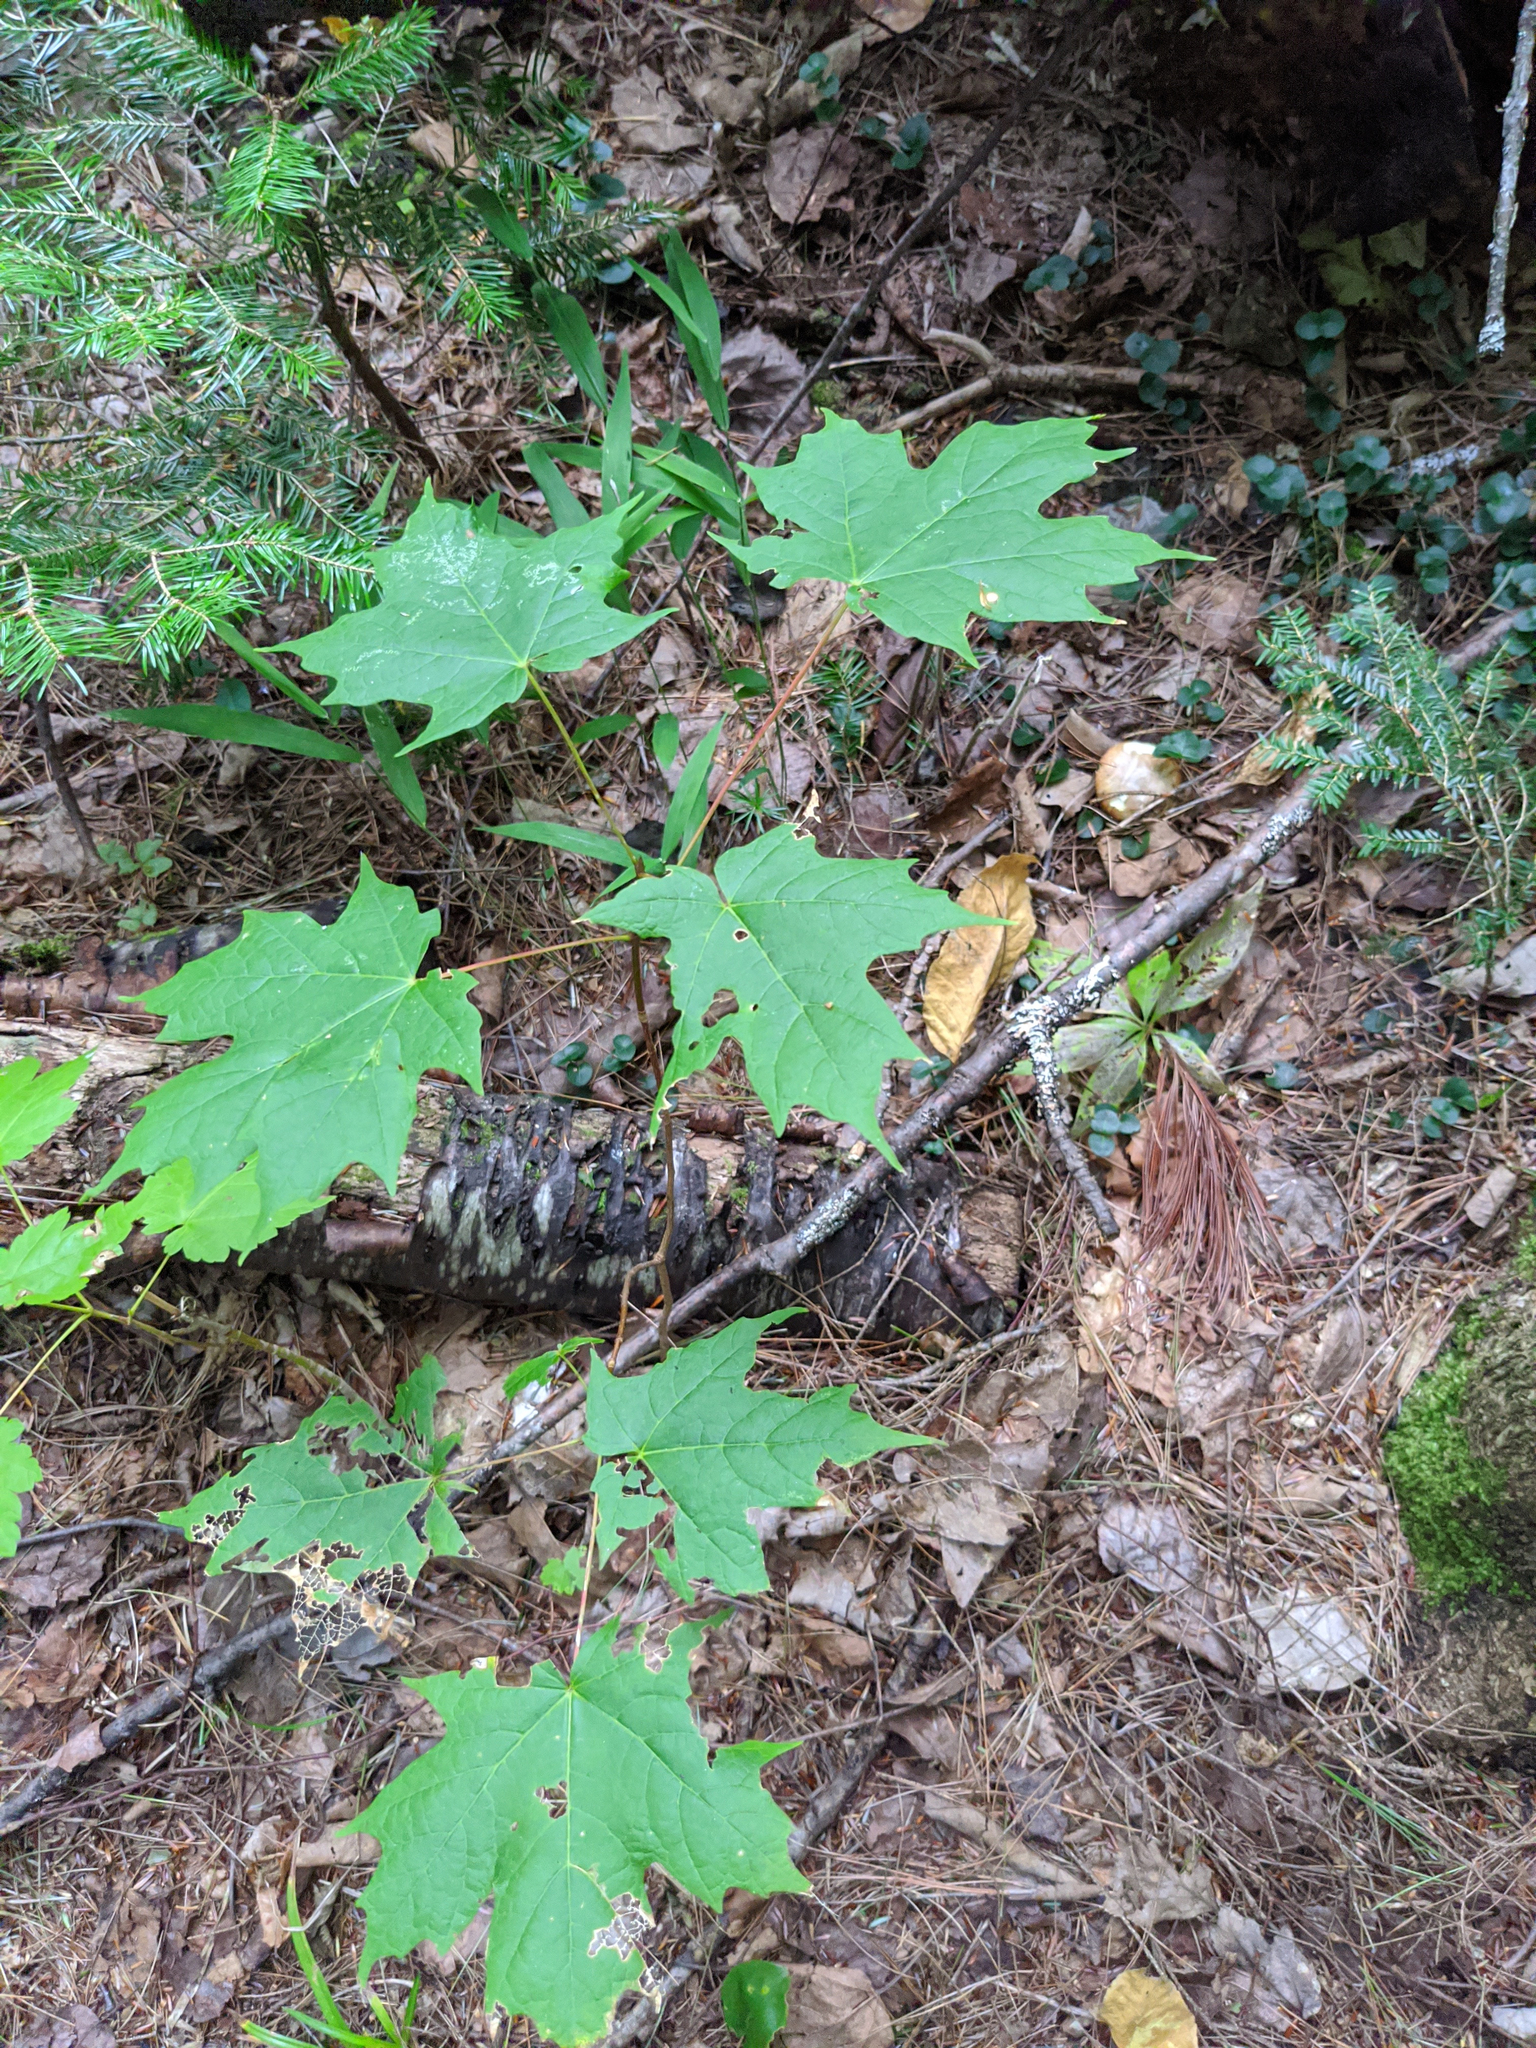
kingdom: Plantae
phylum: Tracheophyta
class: Magnoliopsida
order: Sapindales
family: Sapindaceae
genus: Acer
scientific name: Acer saccharum
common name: Sugar maple
